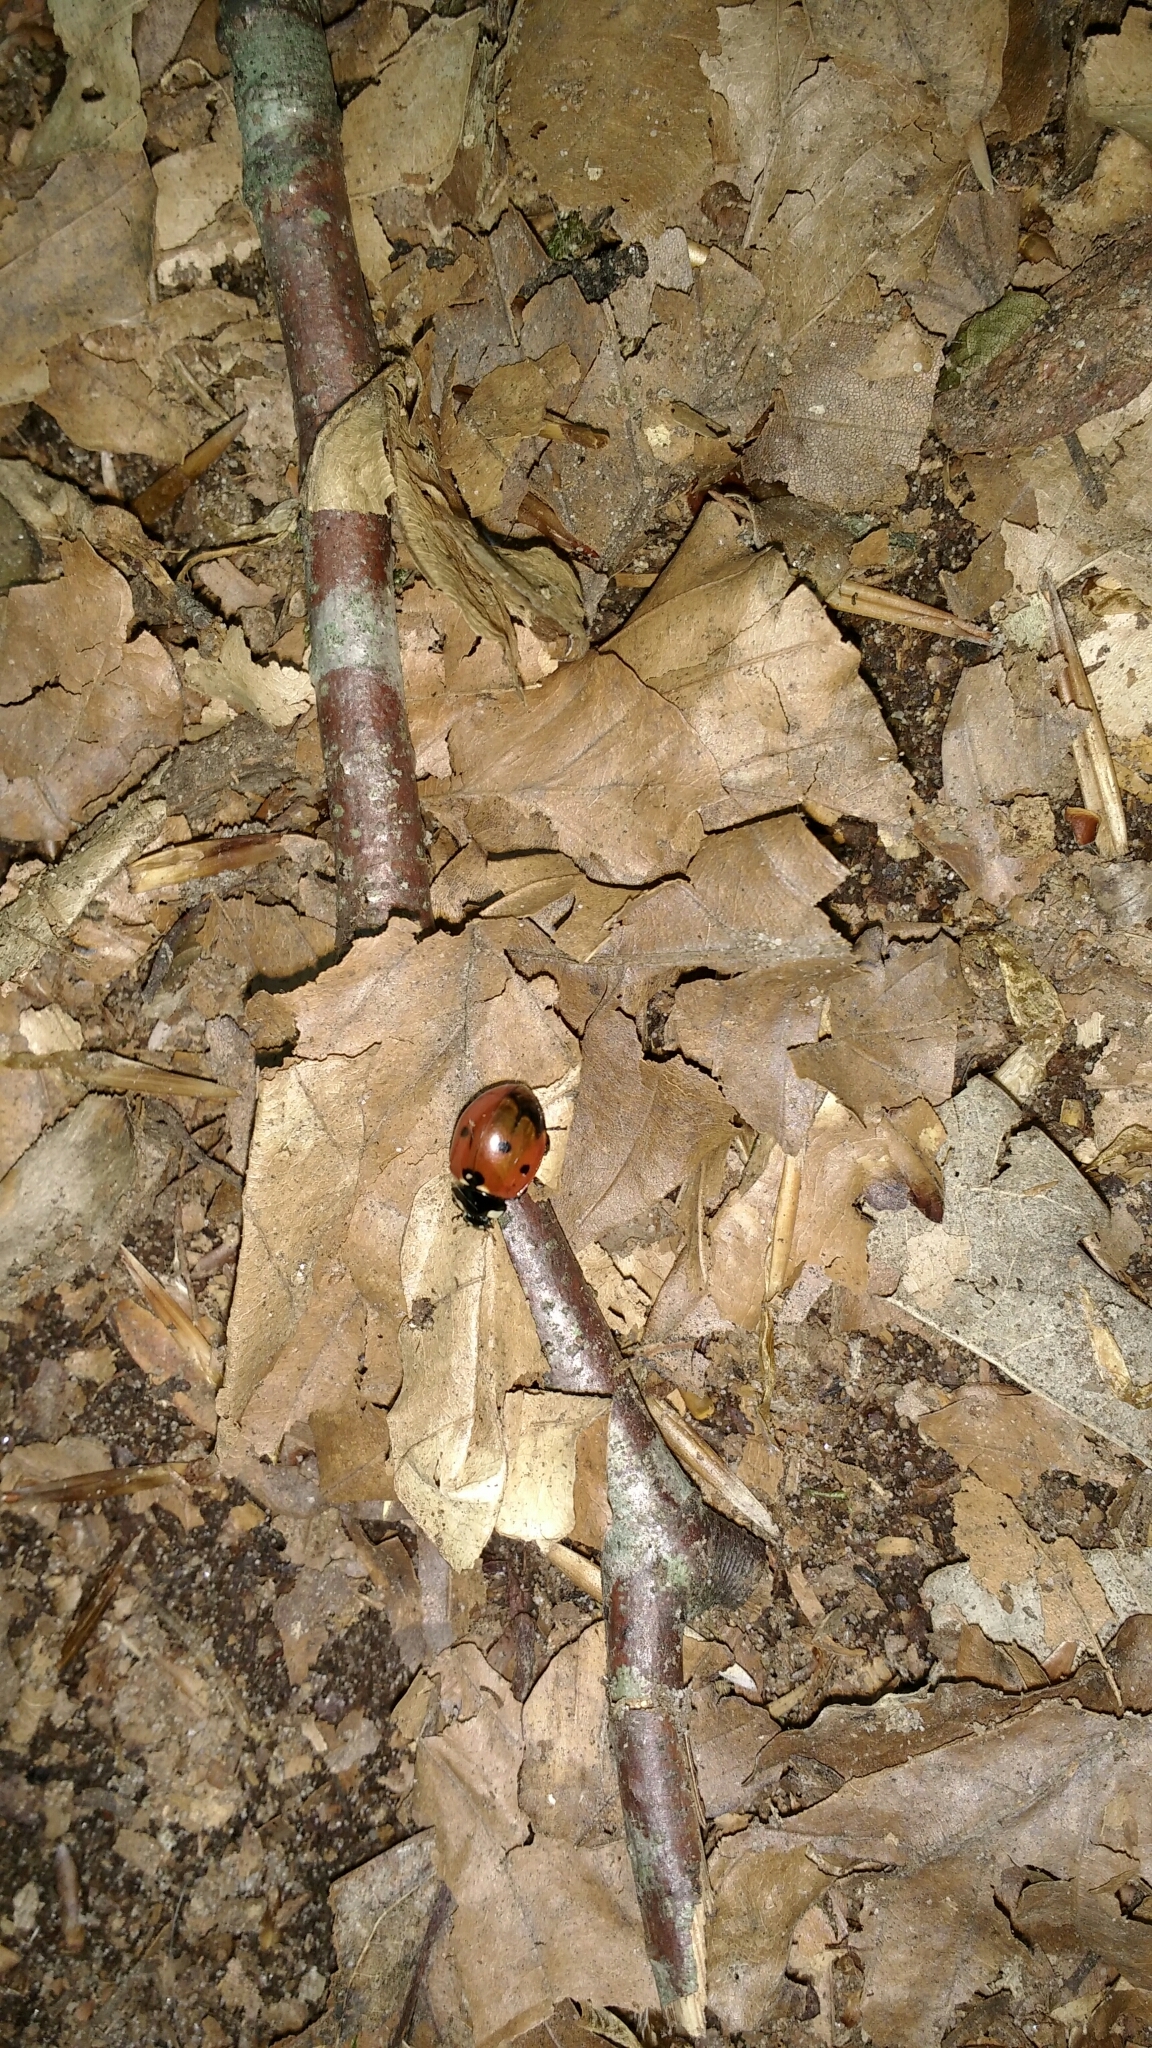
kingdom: Animalia
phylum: Arthropoda
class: Insecta
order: Coleoptera
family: Coccinellidae
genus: Coccinella
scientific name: Coccinella septempunctata
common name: Sevenspotted lady beetle
